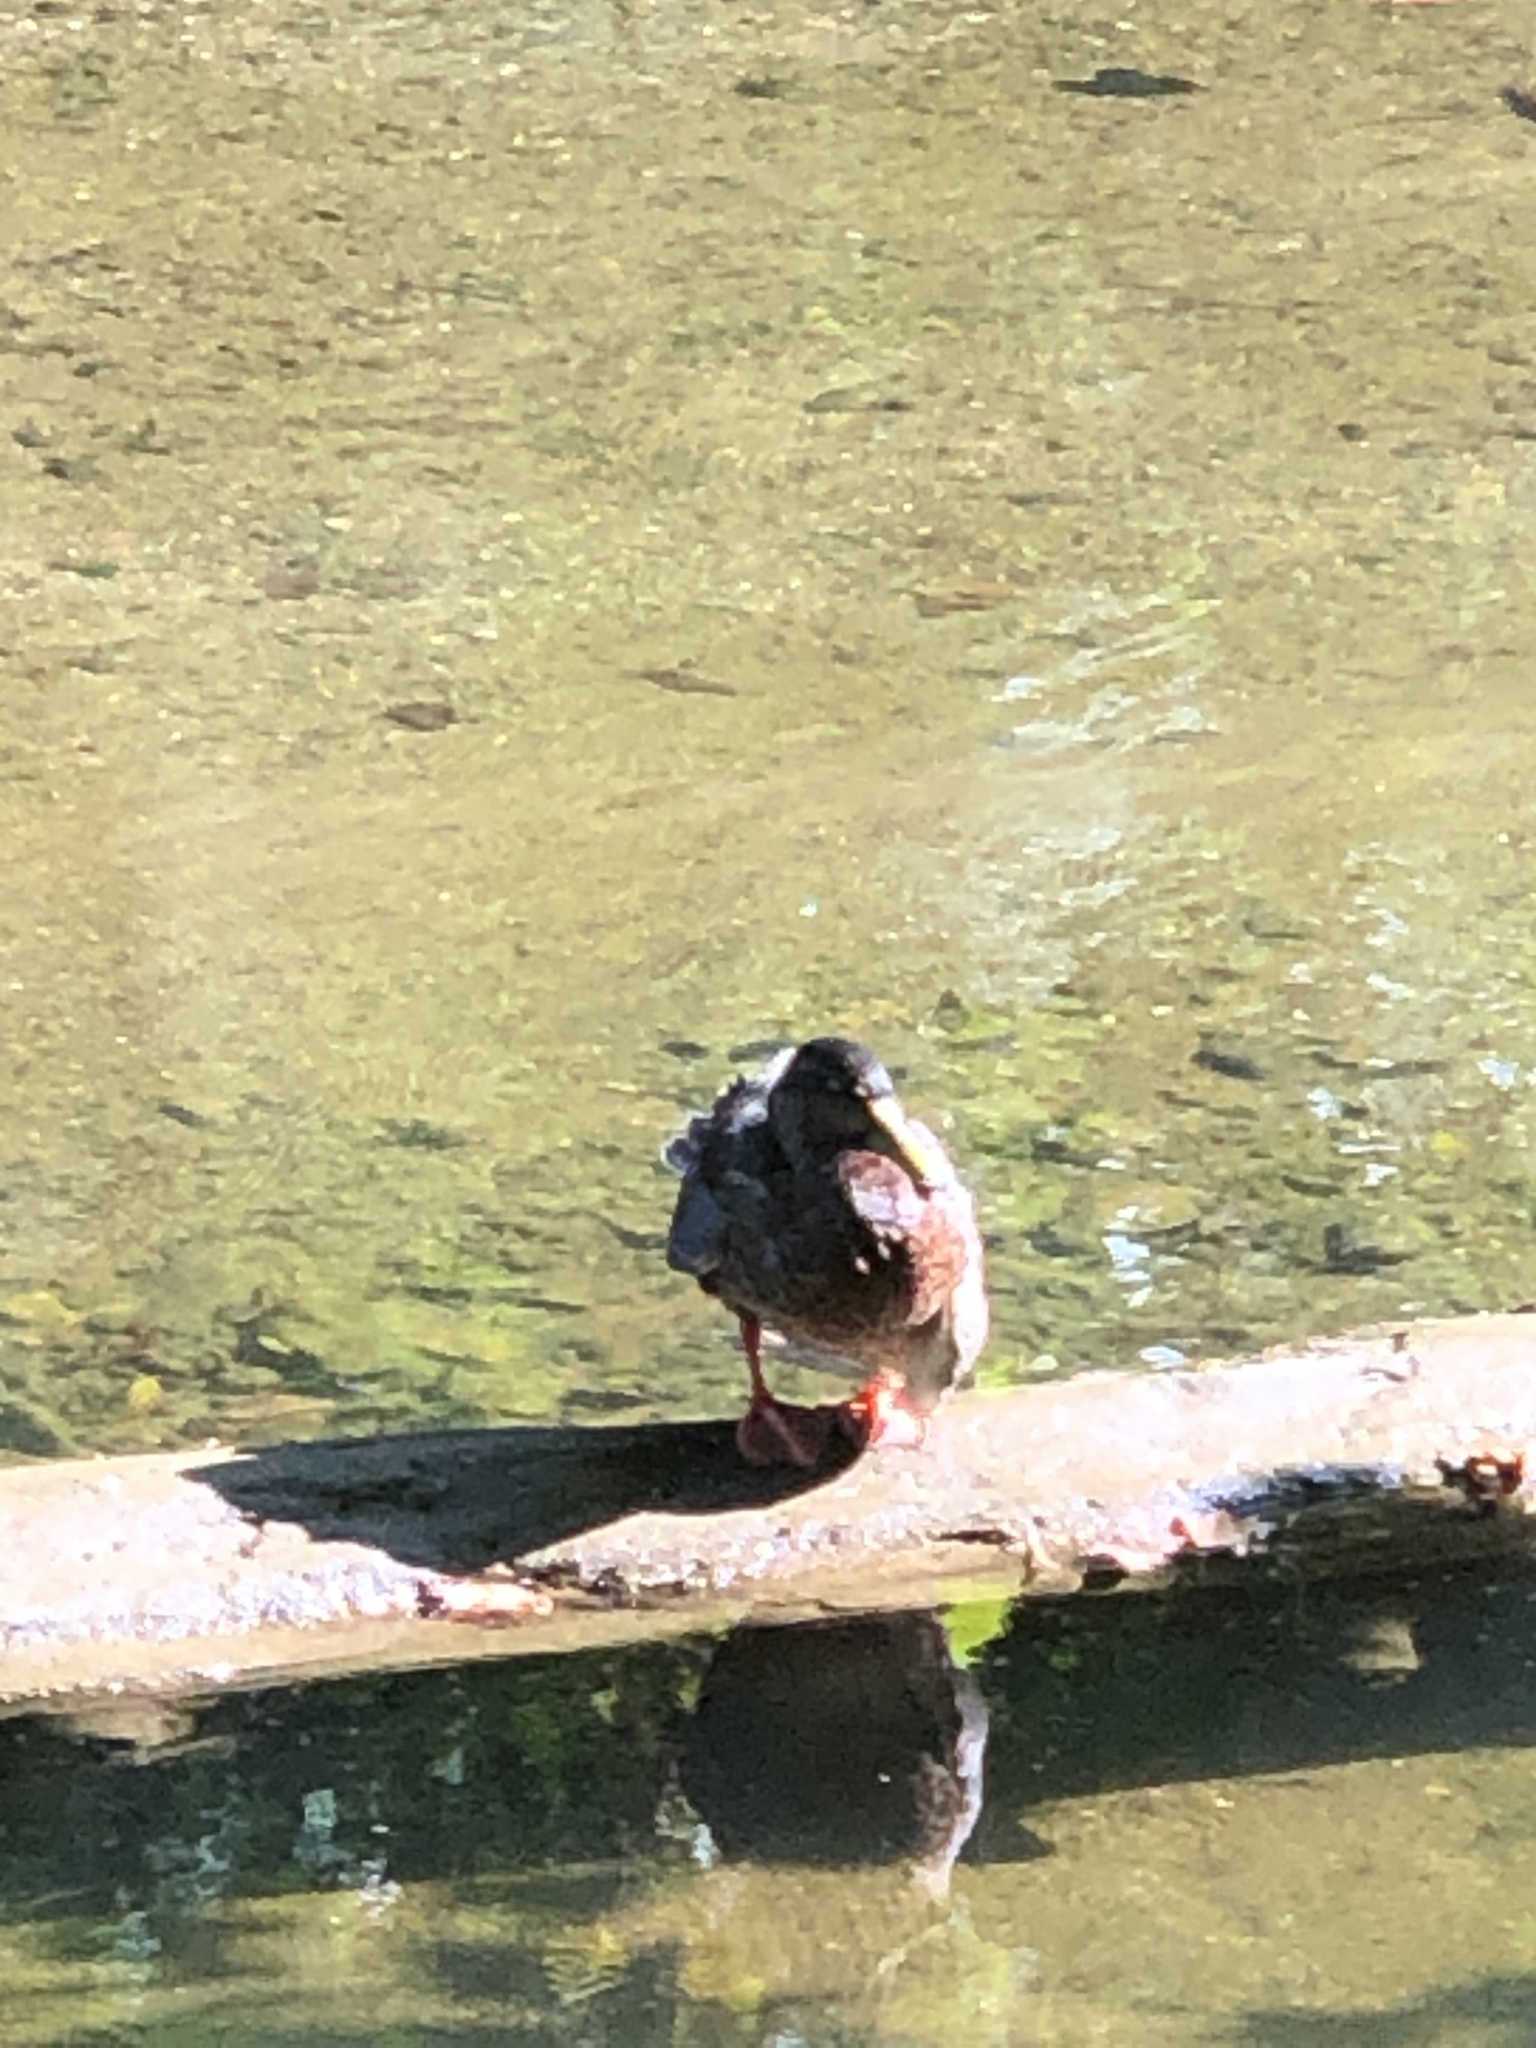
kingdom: Animalia
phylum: Chordata
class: Aves
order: Anseriformes
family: Anatidae
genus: Anas
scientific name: Anas platyrhynchos
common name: Mallard
